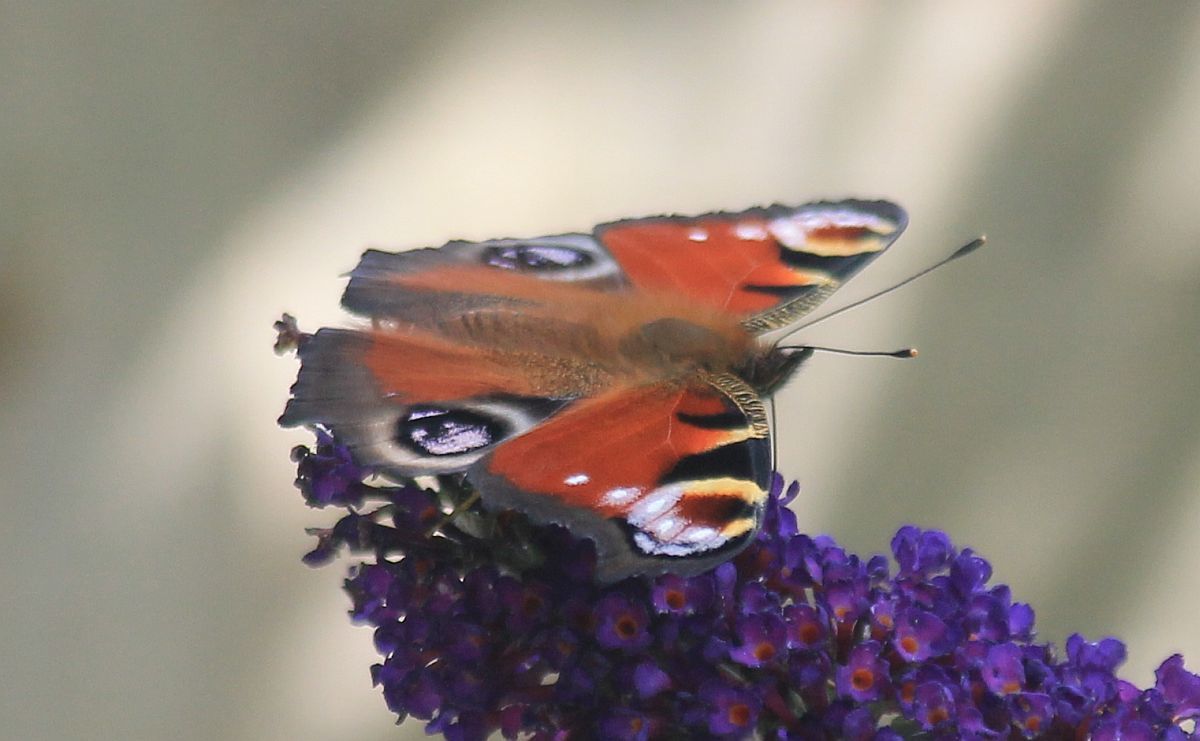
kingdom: Animalia
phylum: Arthropoda
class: Insecta
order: Lepidoptera
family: Nymphalidae
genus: Aglais
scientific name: Aglais io
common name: Peacock
